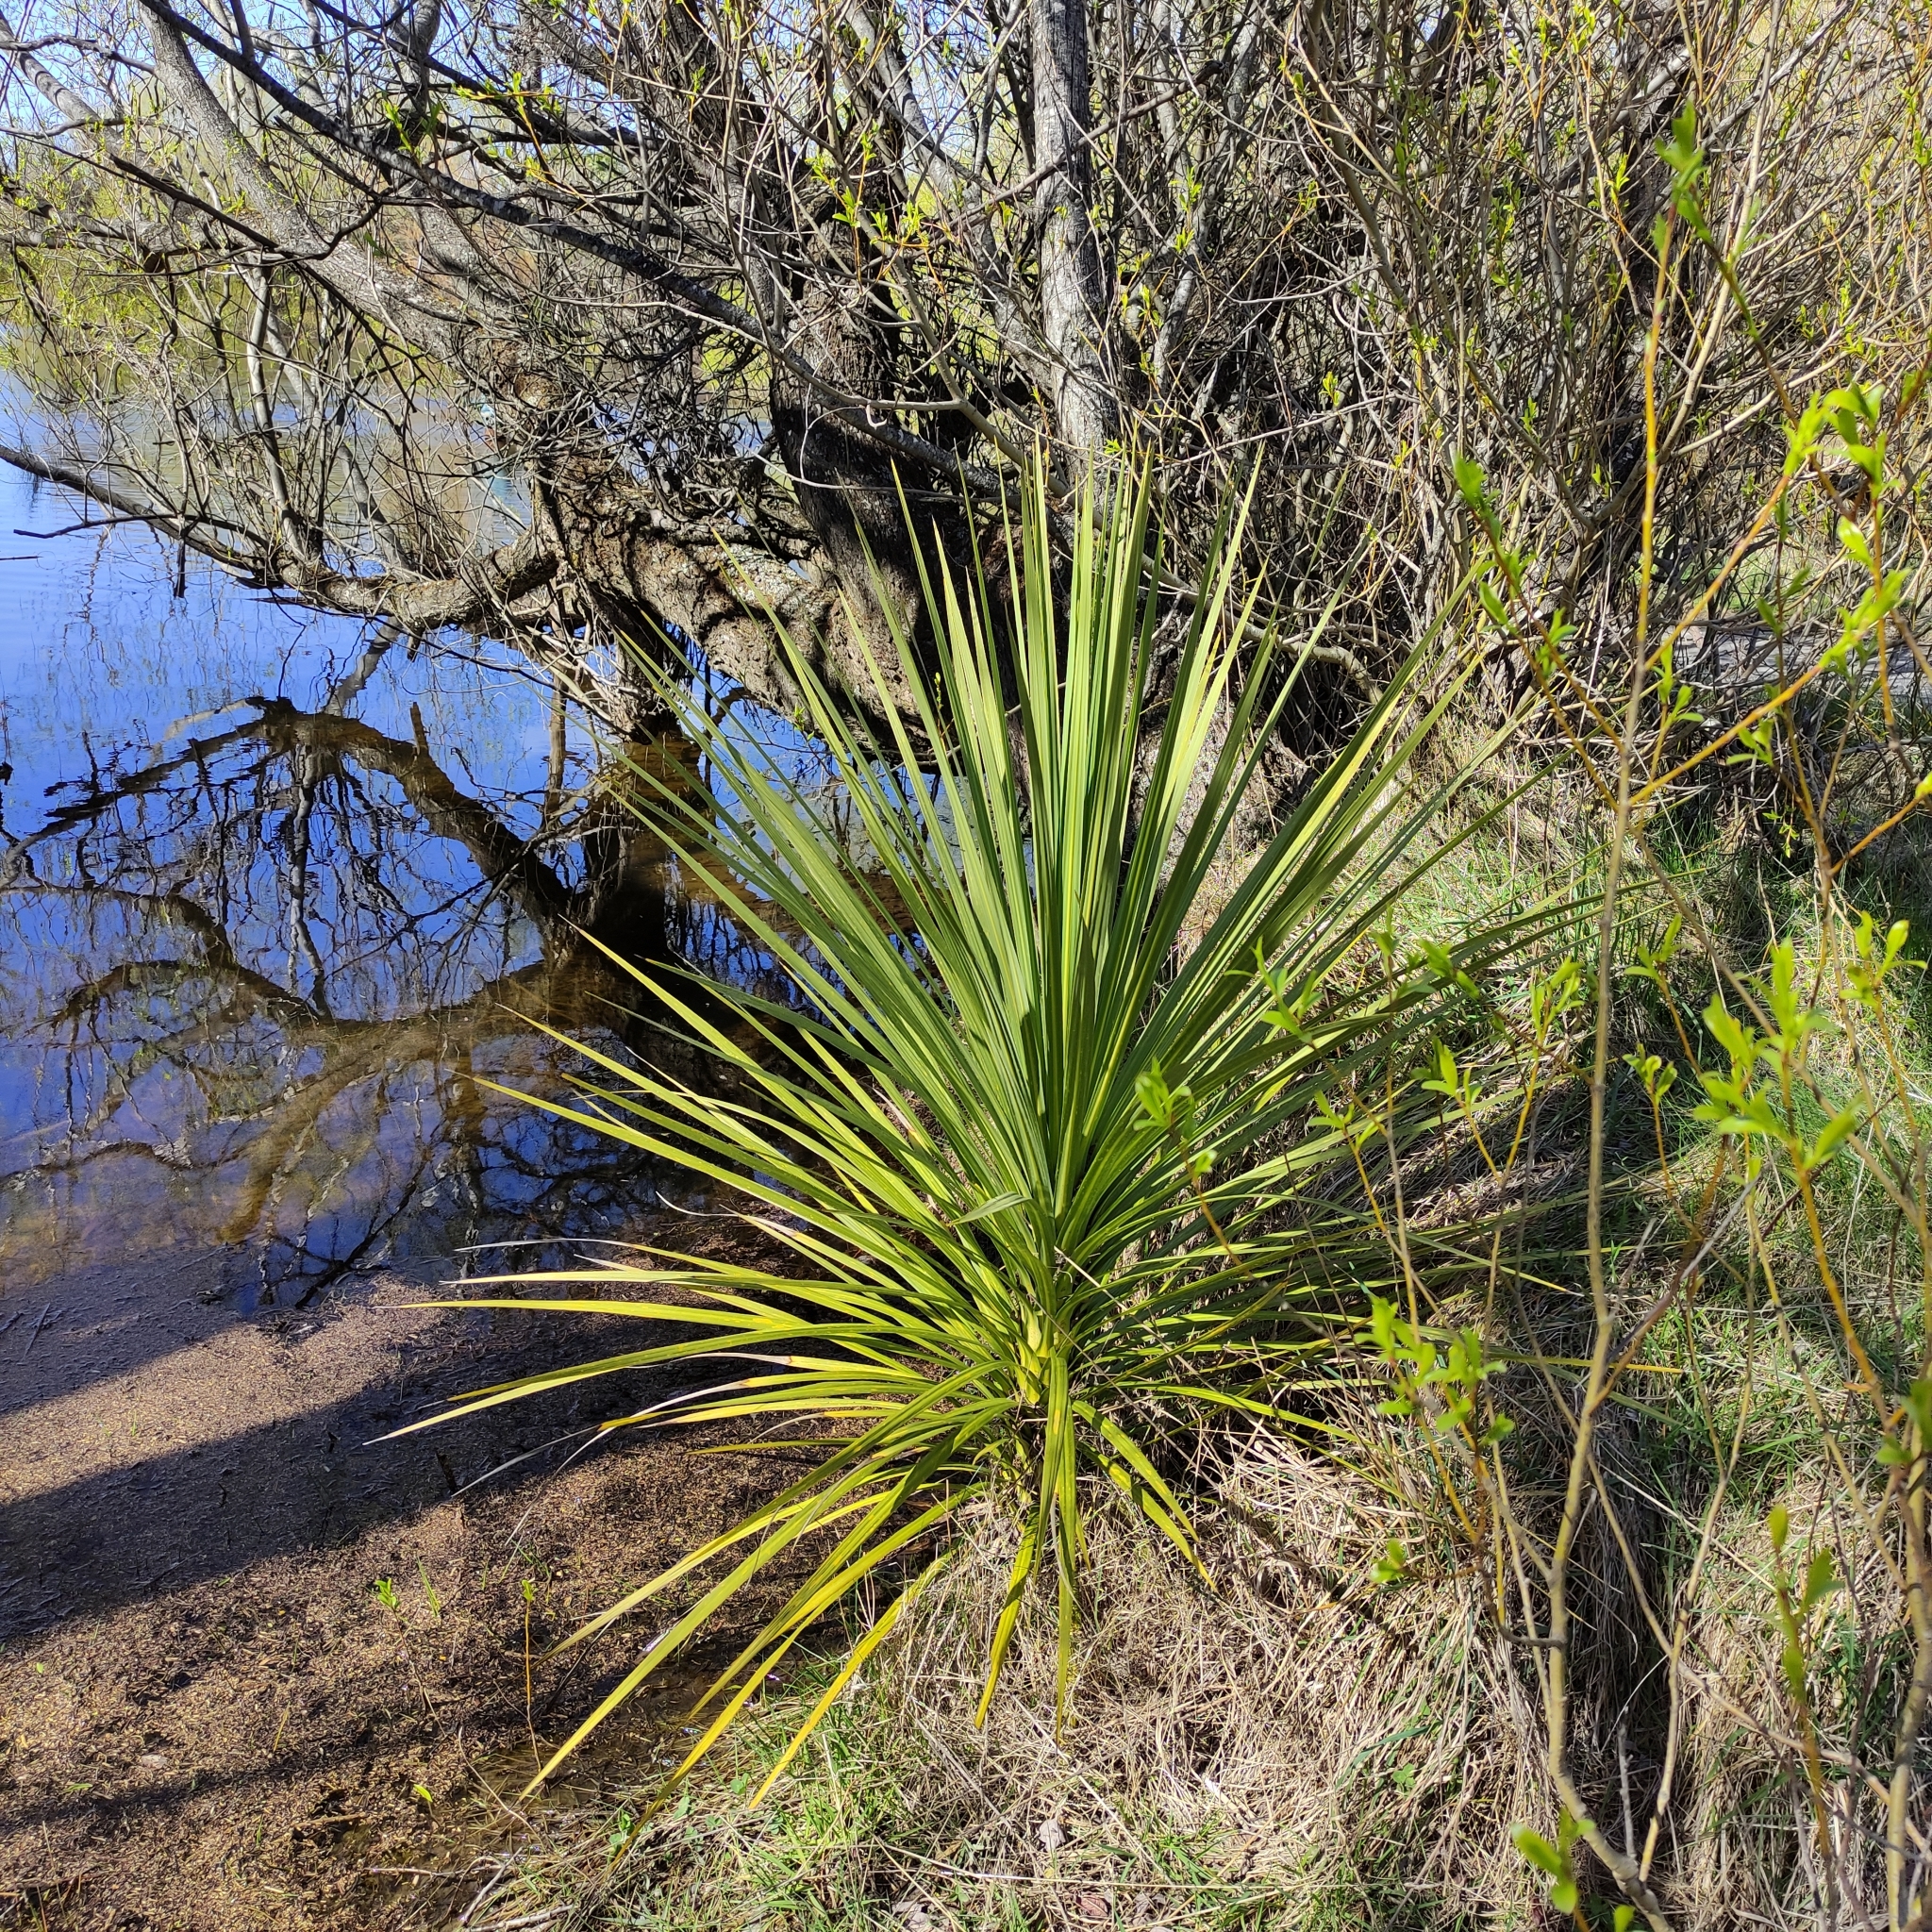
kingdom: Plantae
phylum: Tracheophyta
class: Liliopsida
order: Asparagales
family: Asparagaceae
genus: Cordyline
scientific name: Cordyline australis
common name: Cabbage-palm
